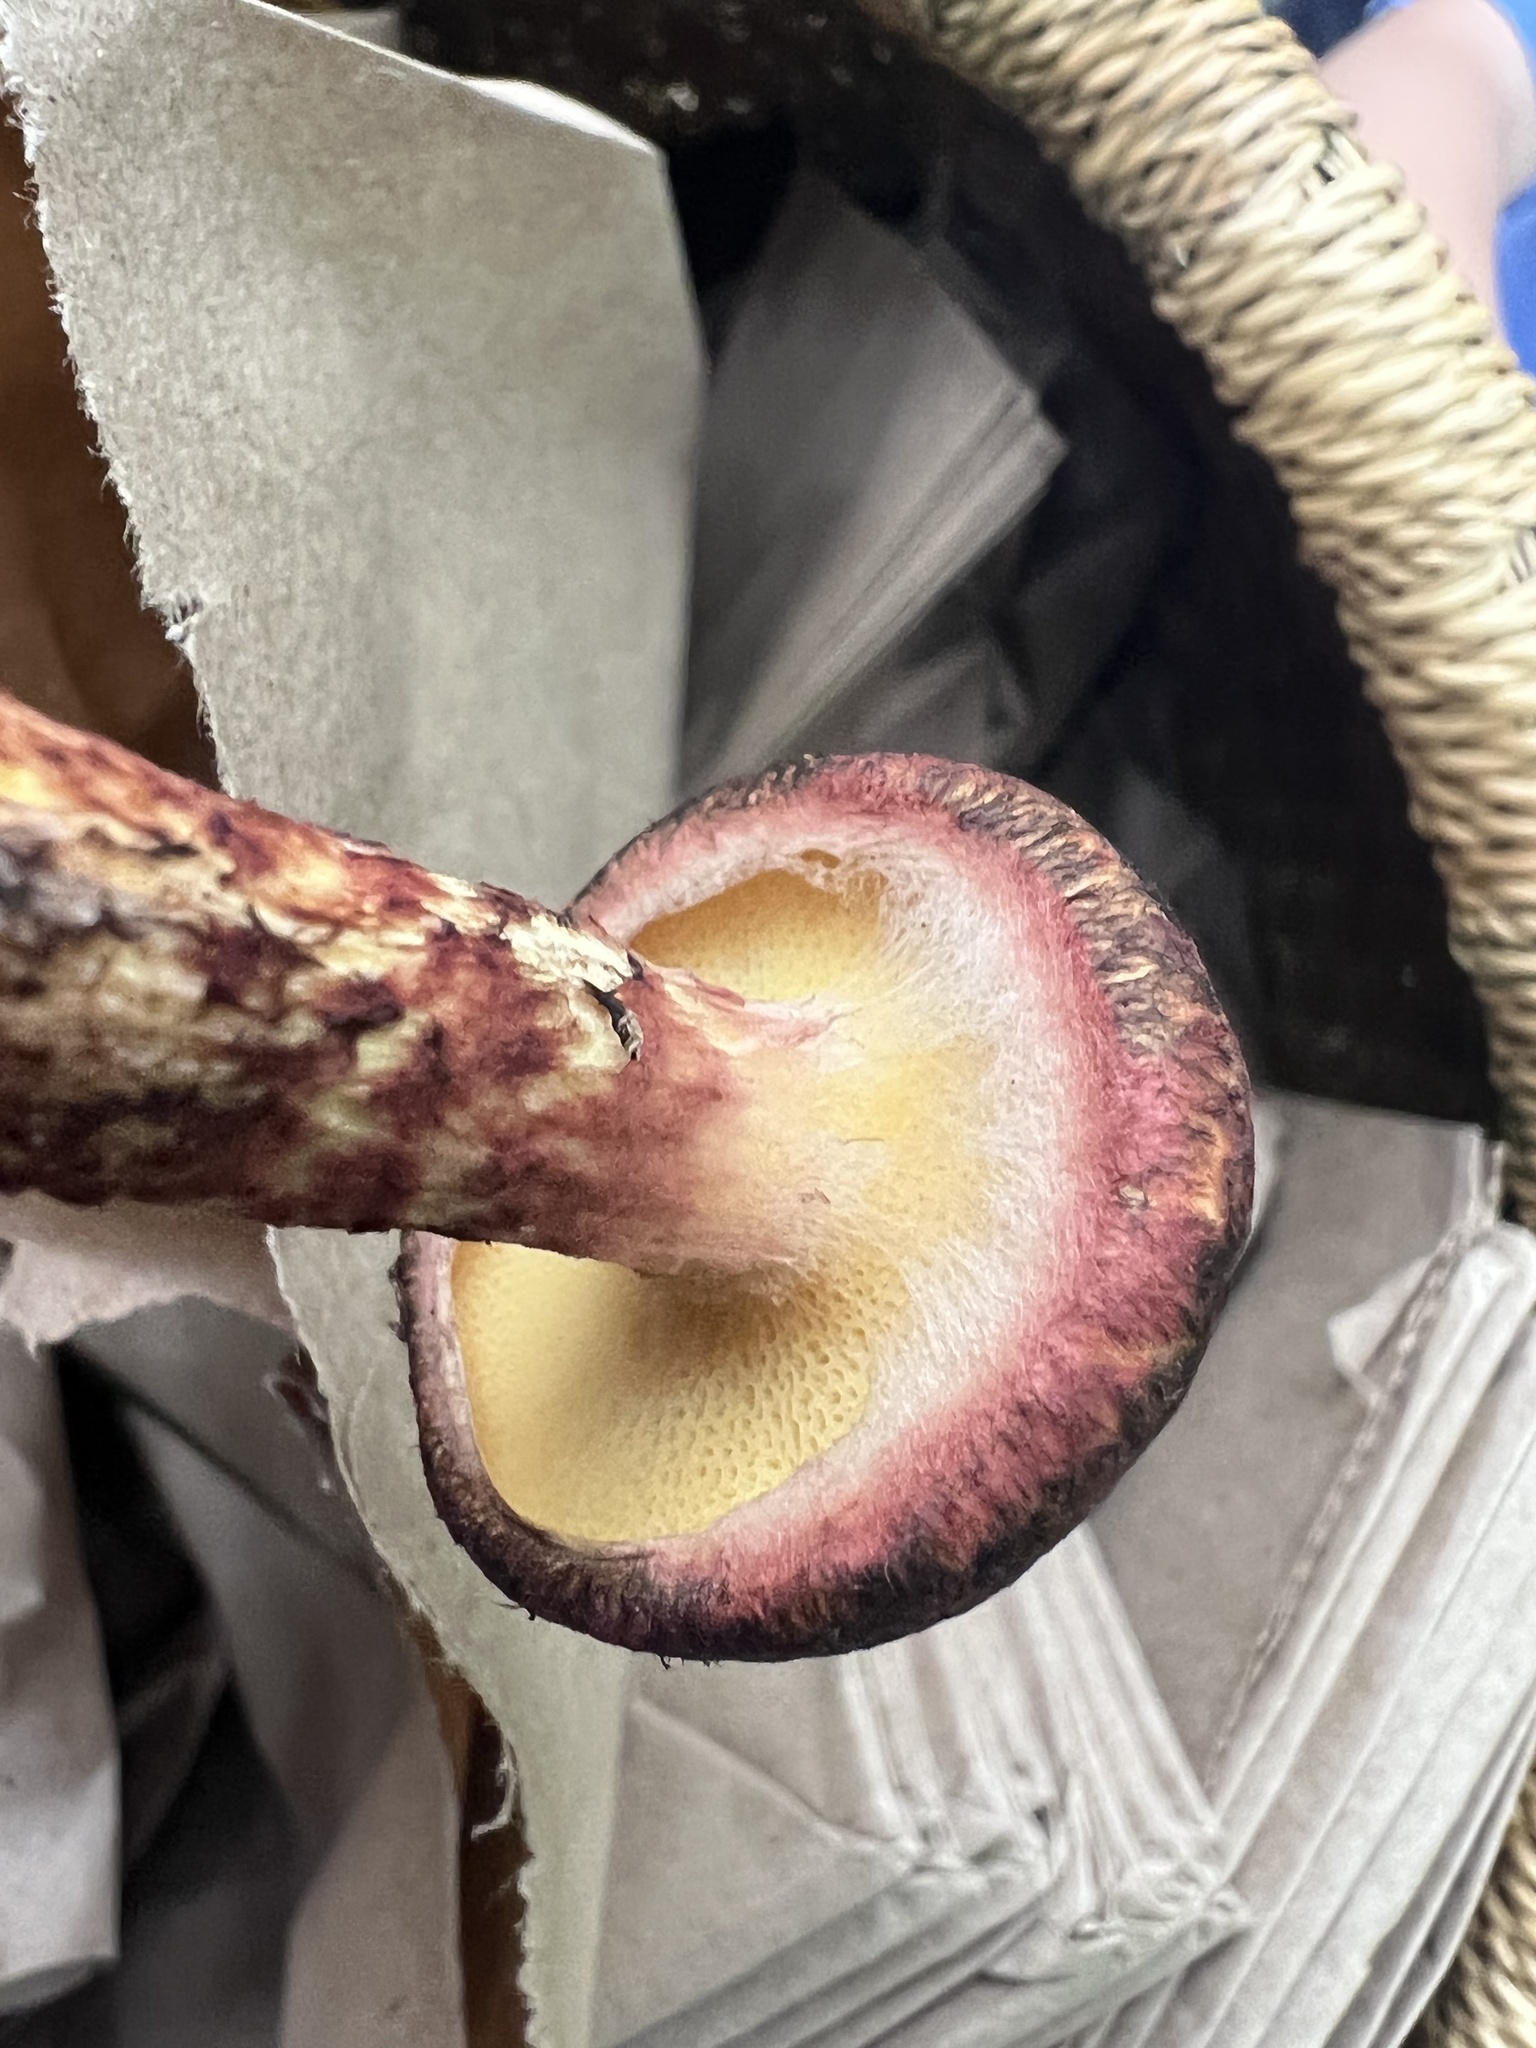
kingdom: Fungi
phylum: Basidiomycota
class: Agaricomycetes
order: Boletales
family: Suillaceae
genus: Suillus
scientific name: Suillus spraguei
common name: Painted suillus
